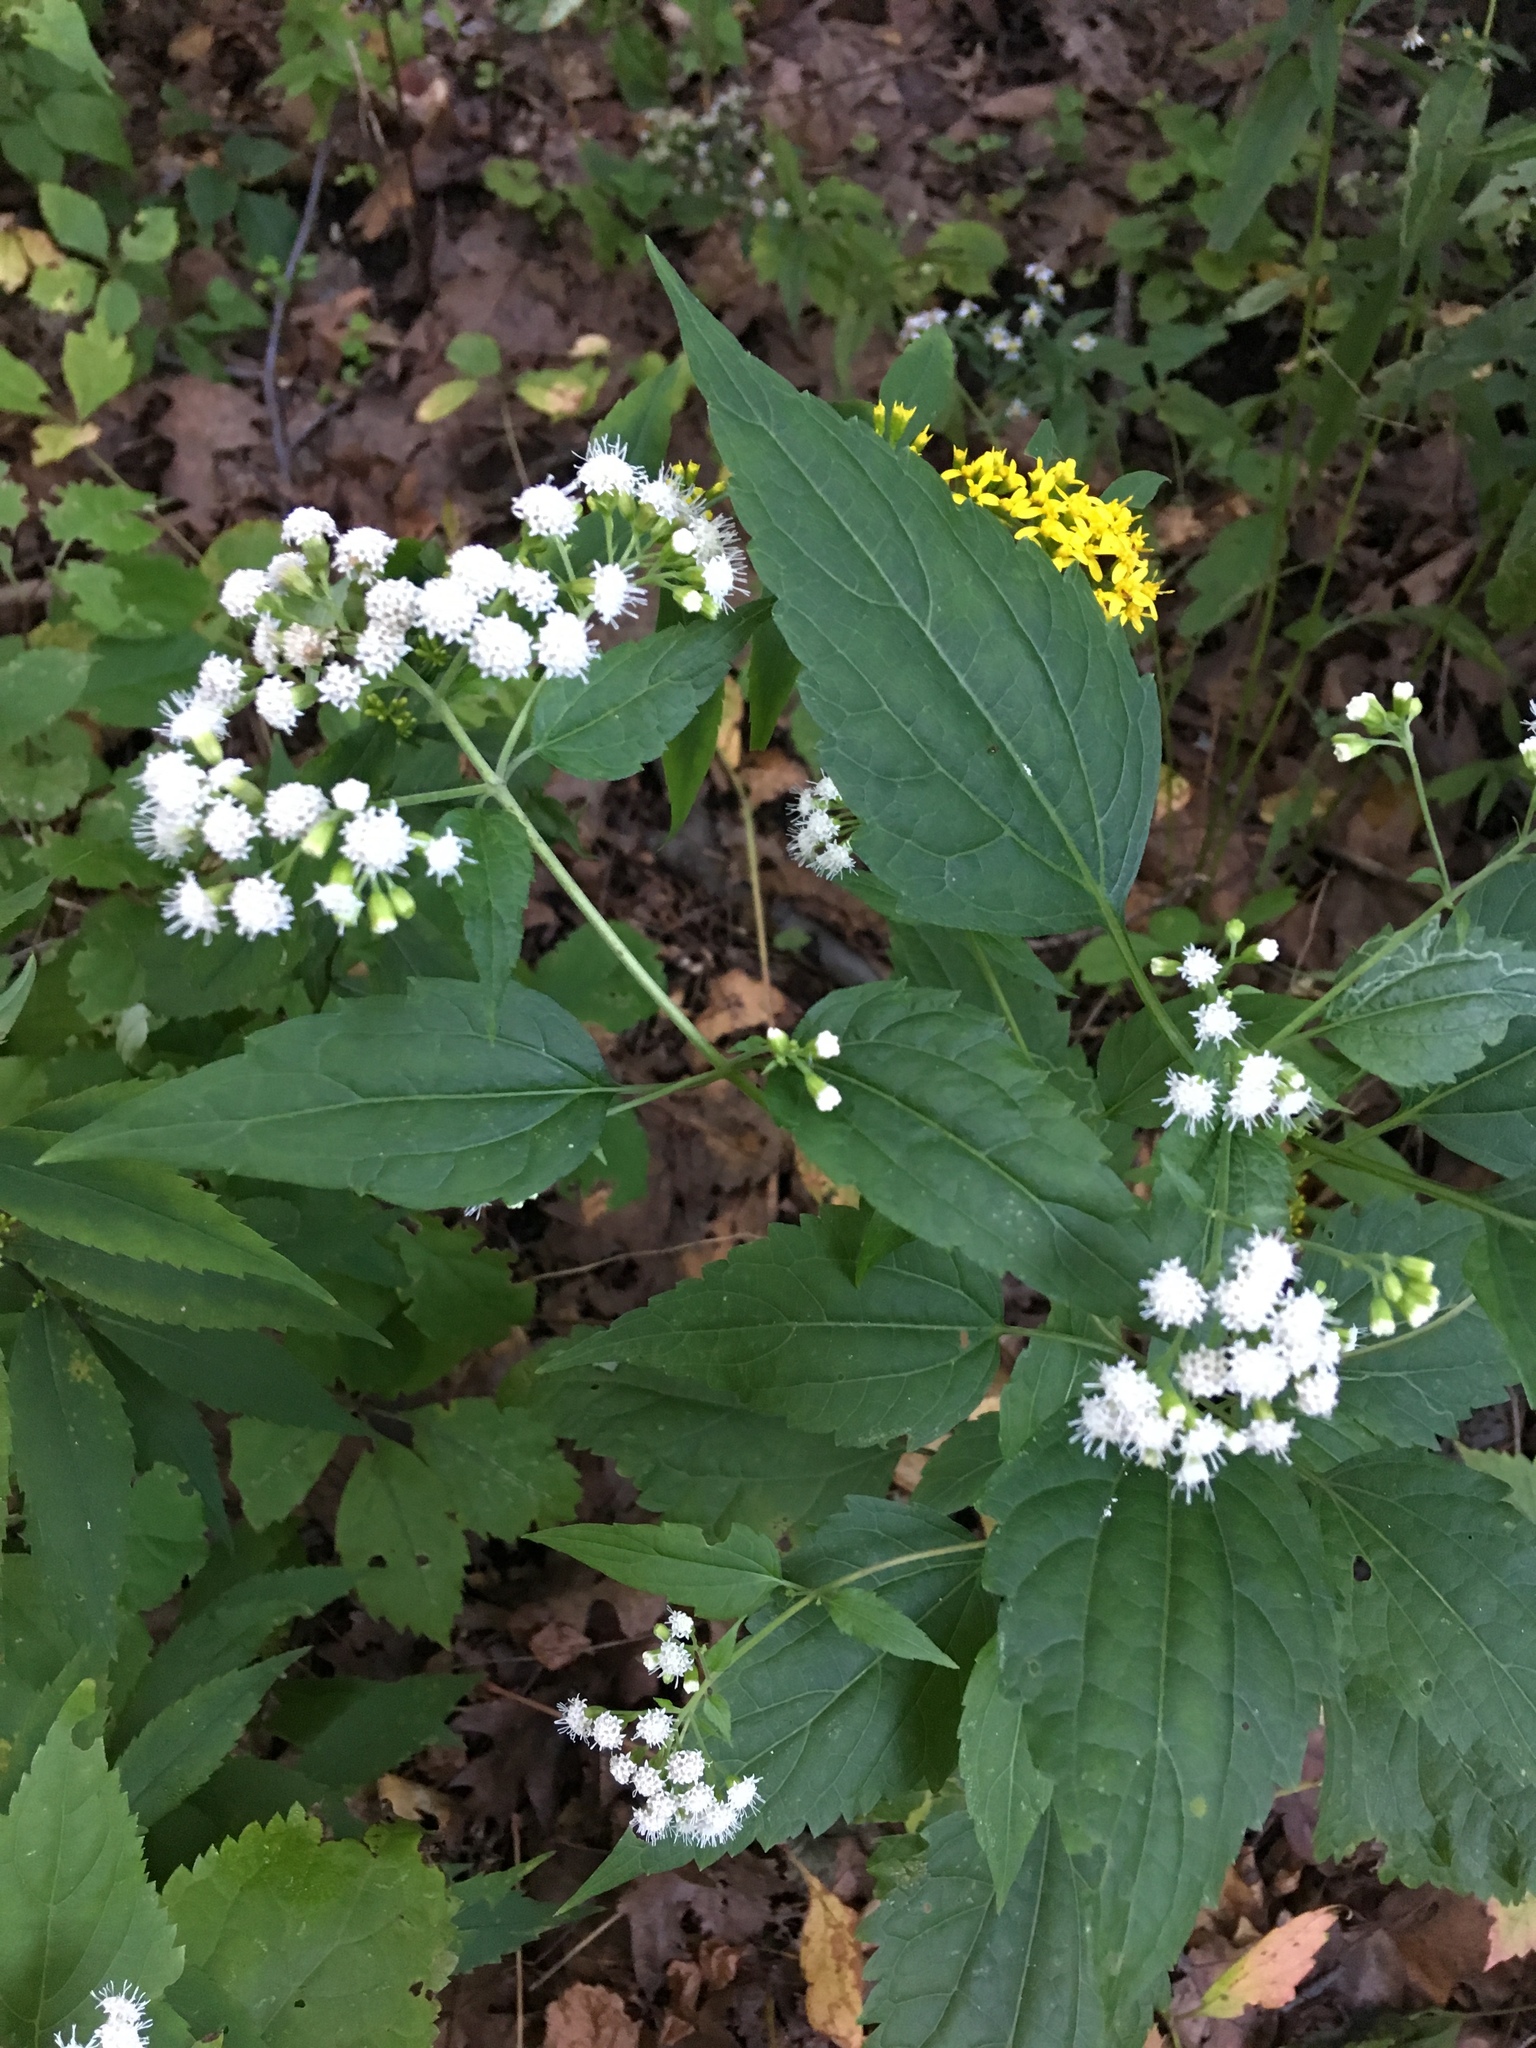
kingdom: Plantae
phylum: Tracheophyta
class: Magnoliopsida
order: Asterales
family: Asteraceae
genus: Ageratina
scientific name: Ageratina altissima
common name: White snakeroot
